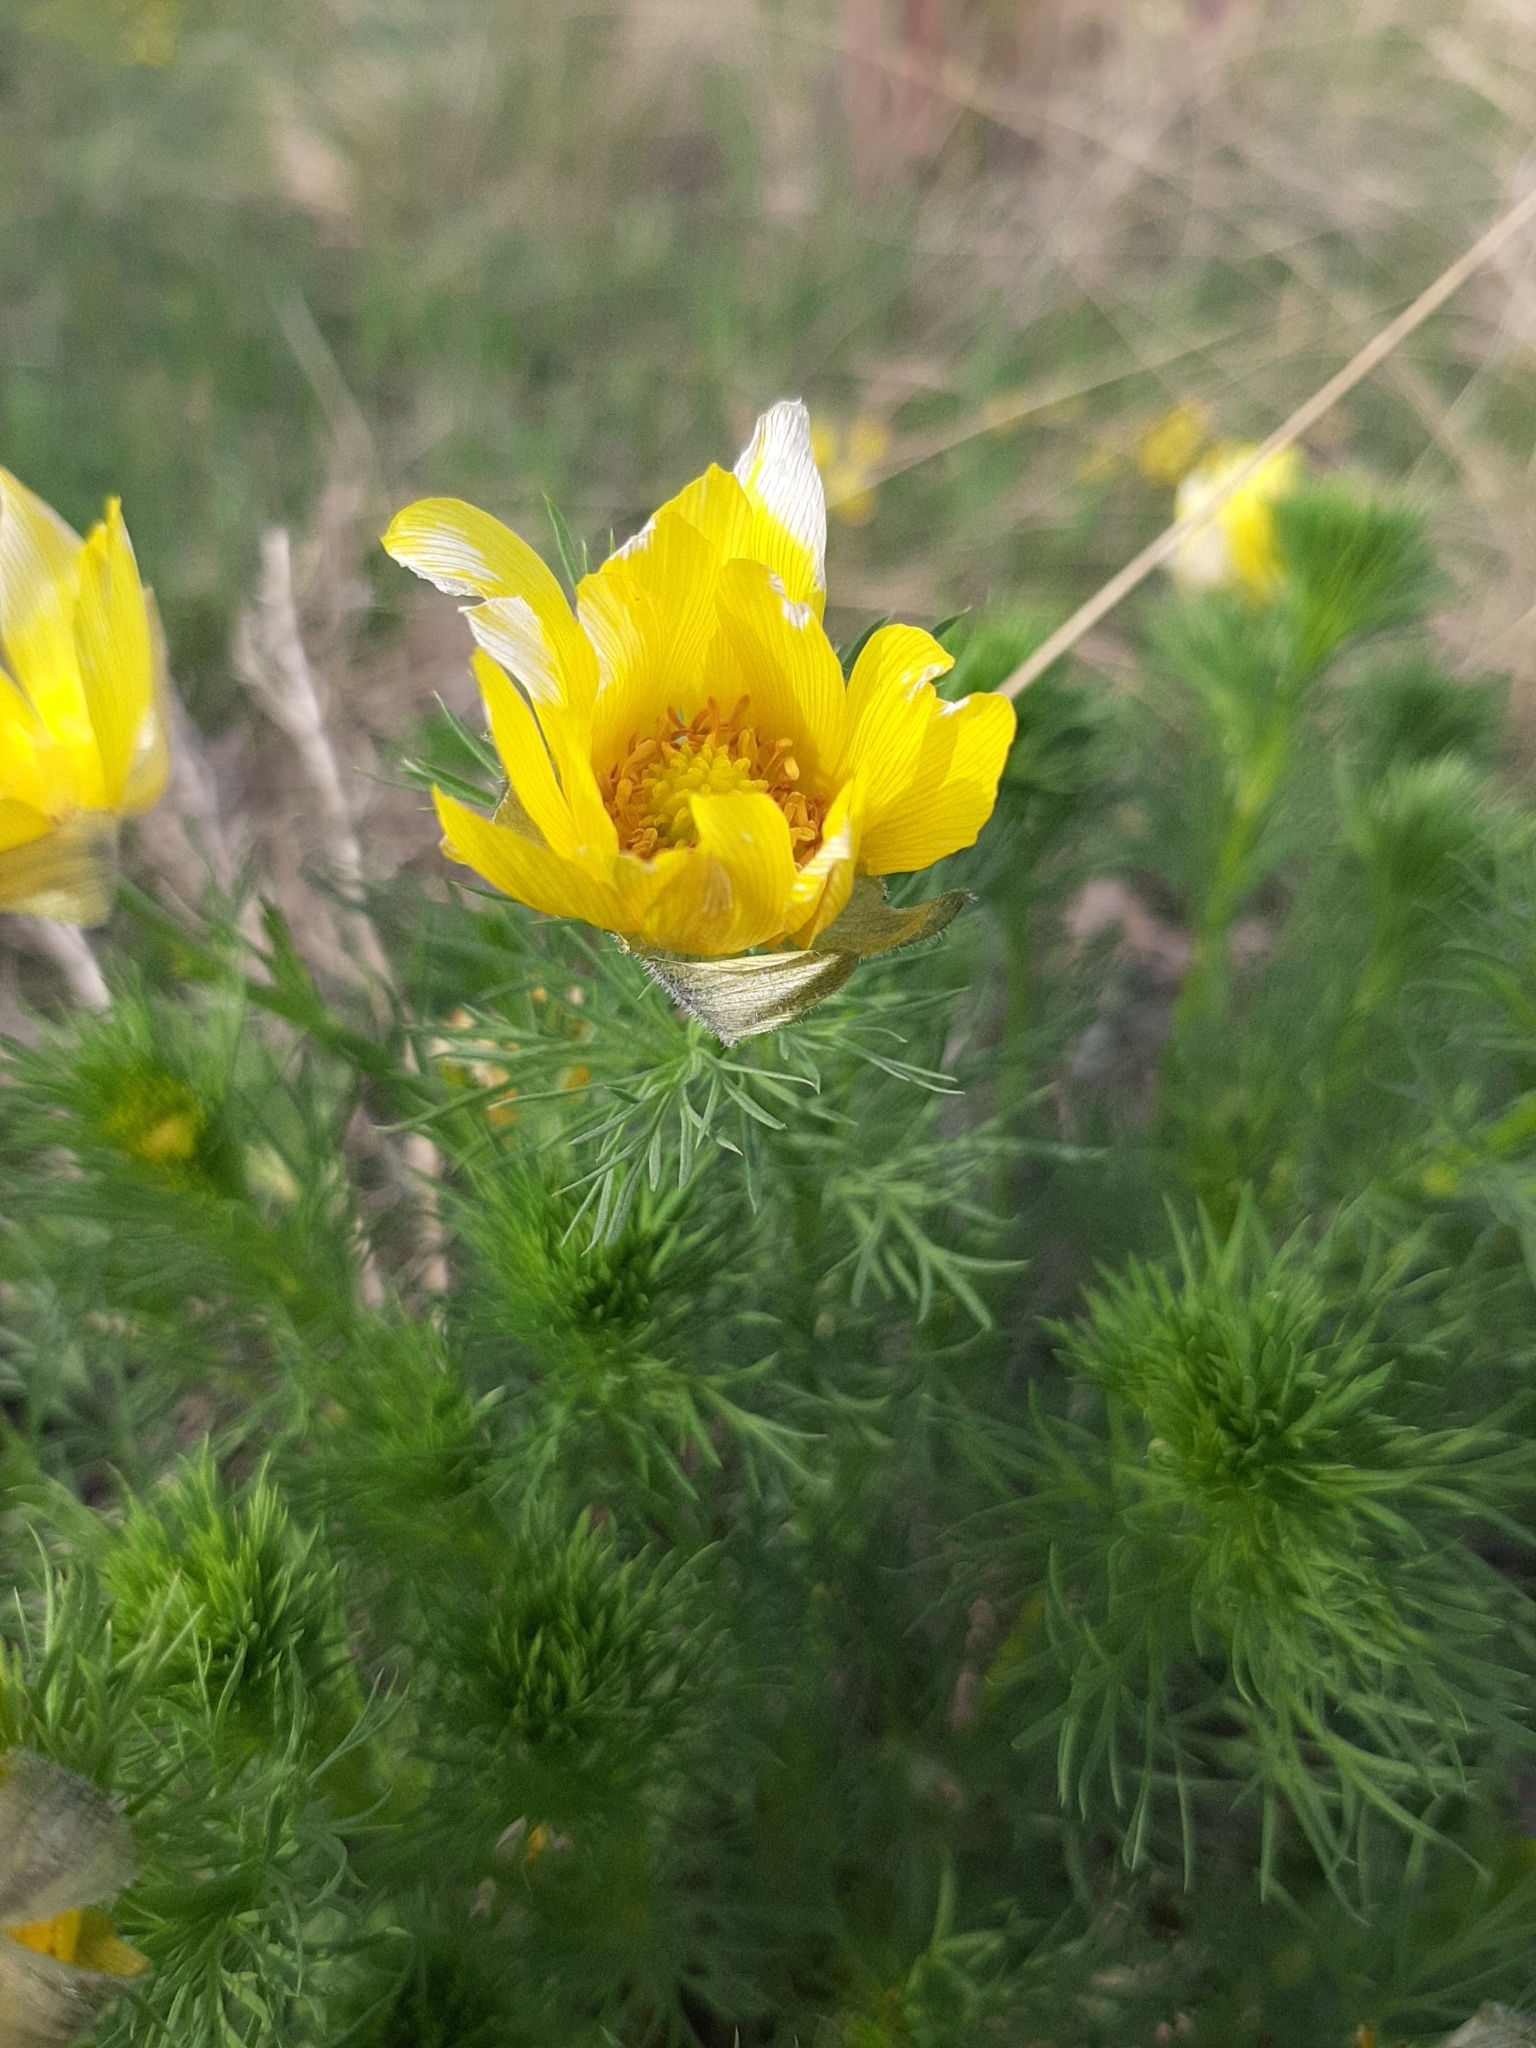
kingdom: Plantae
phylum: Tracheophyta
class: Magnoliopsida
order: Ranunculales
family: Ranunculaceae
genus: Adonis
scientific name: Adonis vernalis
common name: Yellow pheasants-eye
